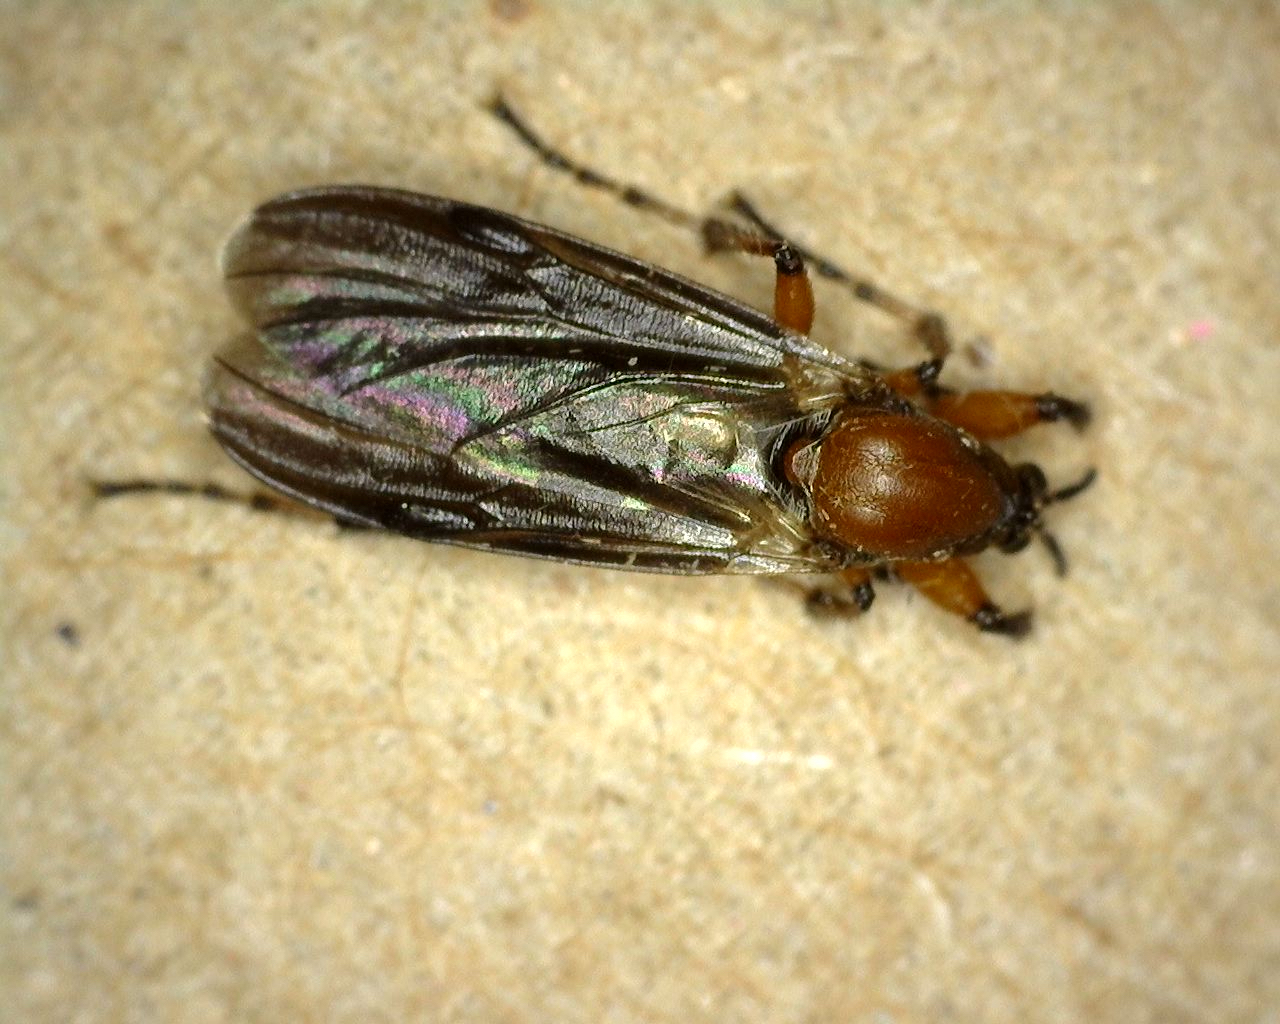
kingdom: Animalia
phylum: Arthropoda
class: Insecta
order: Diptera
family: Bibionidae
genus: Bibio
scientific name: Bibio articulatus
